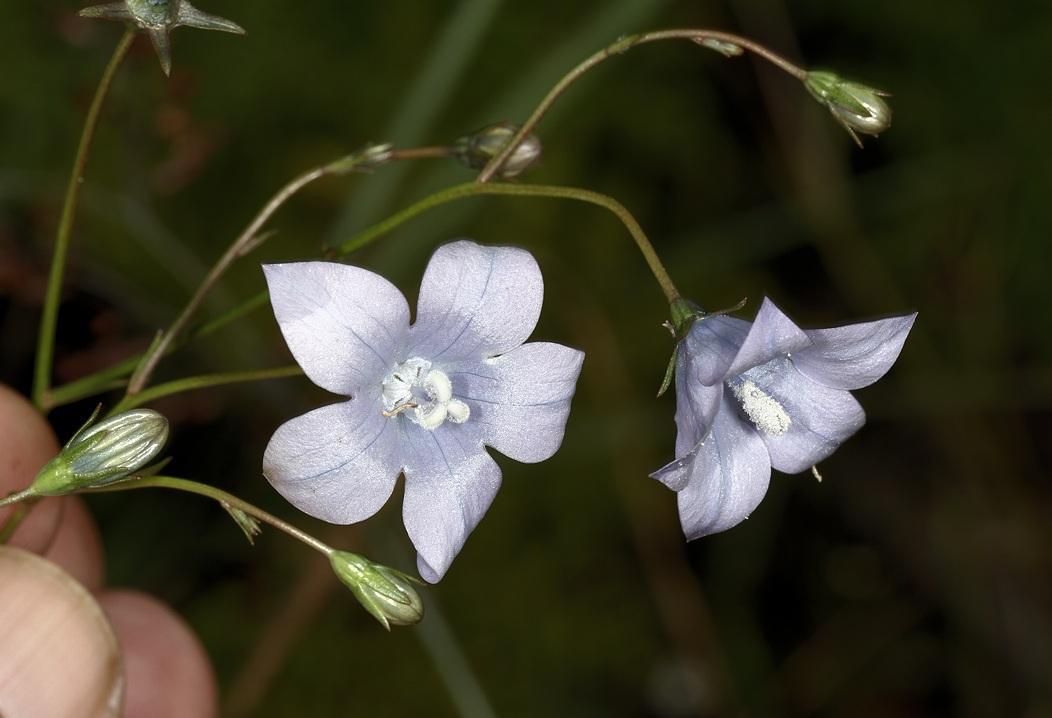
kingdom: Plantae
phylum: Tracheophyta
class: Magnoliopsida
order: Asterales
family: Campanulaceae
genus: Wahlenbergia
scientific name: Wahlenbergia undulata
